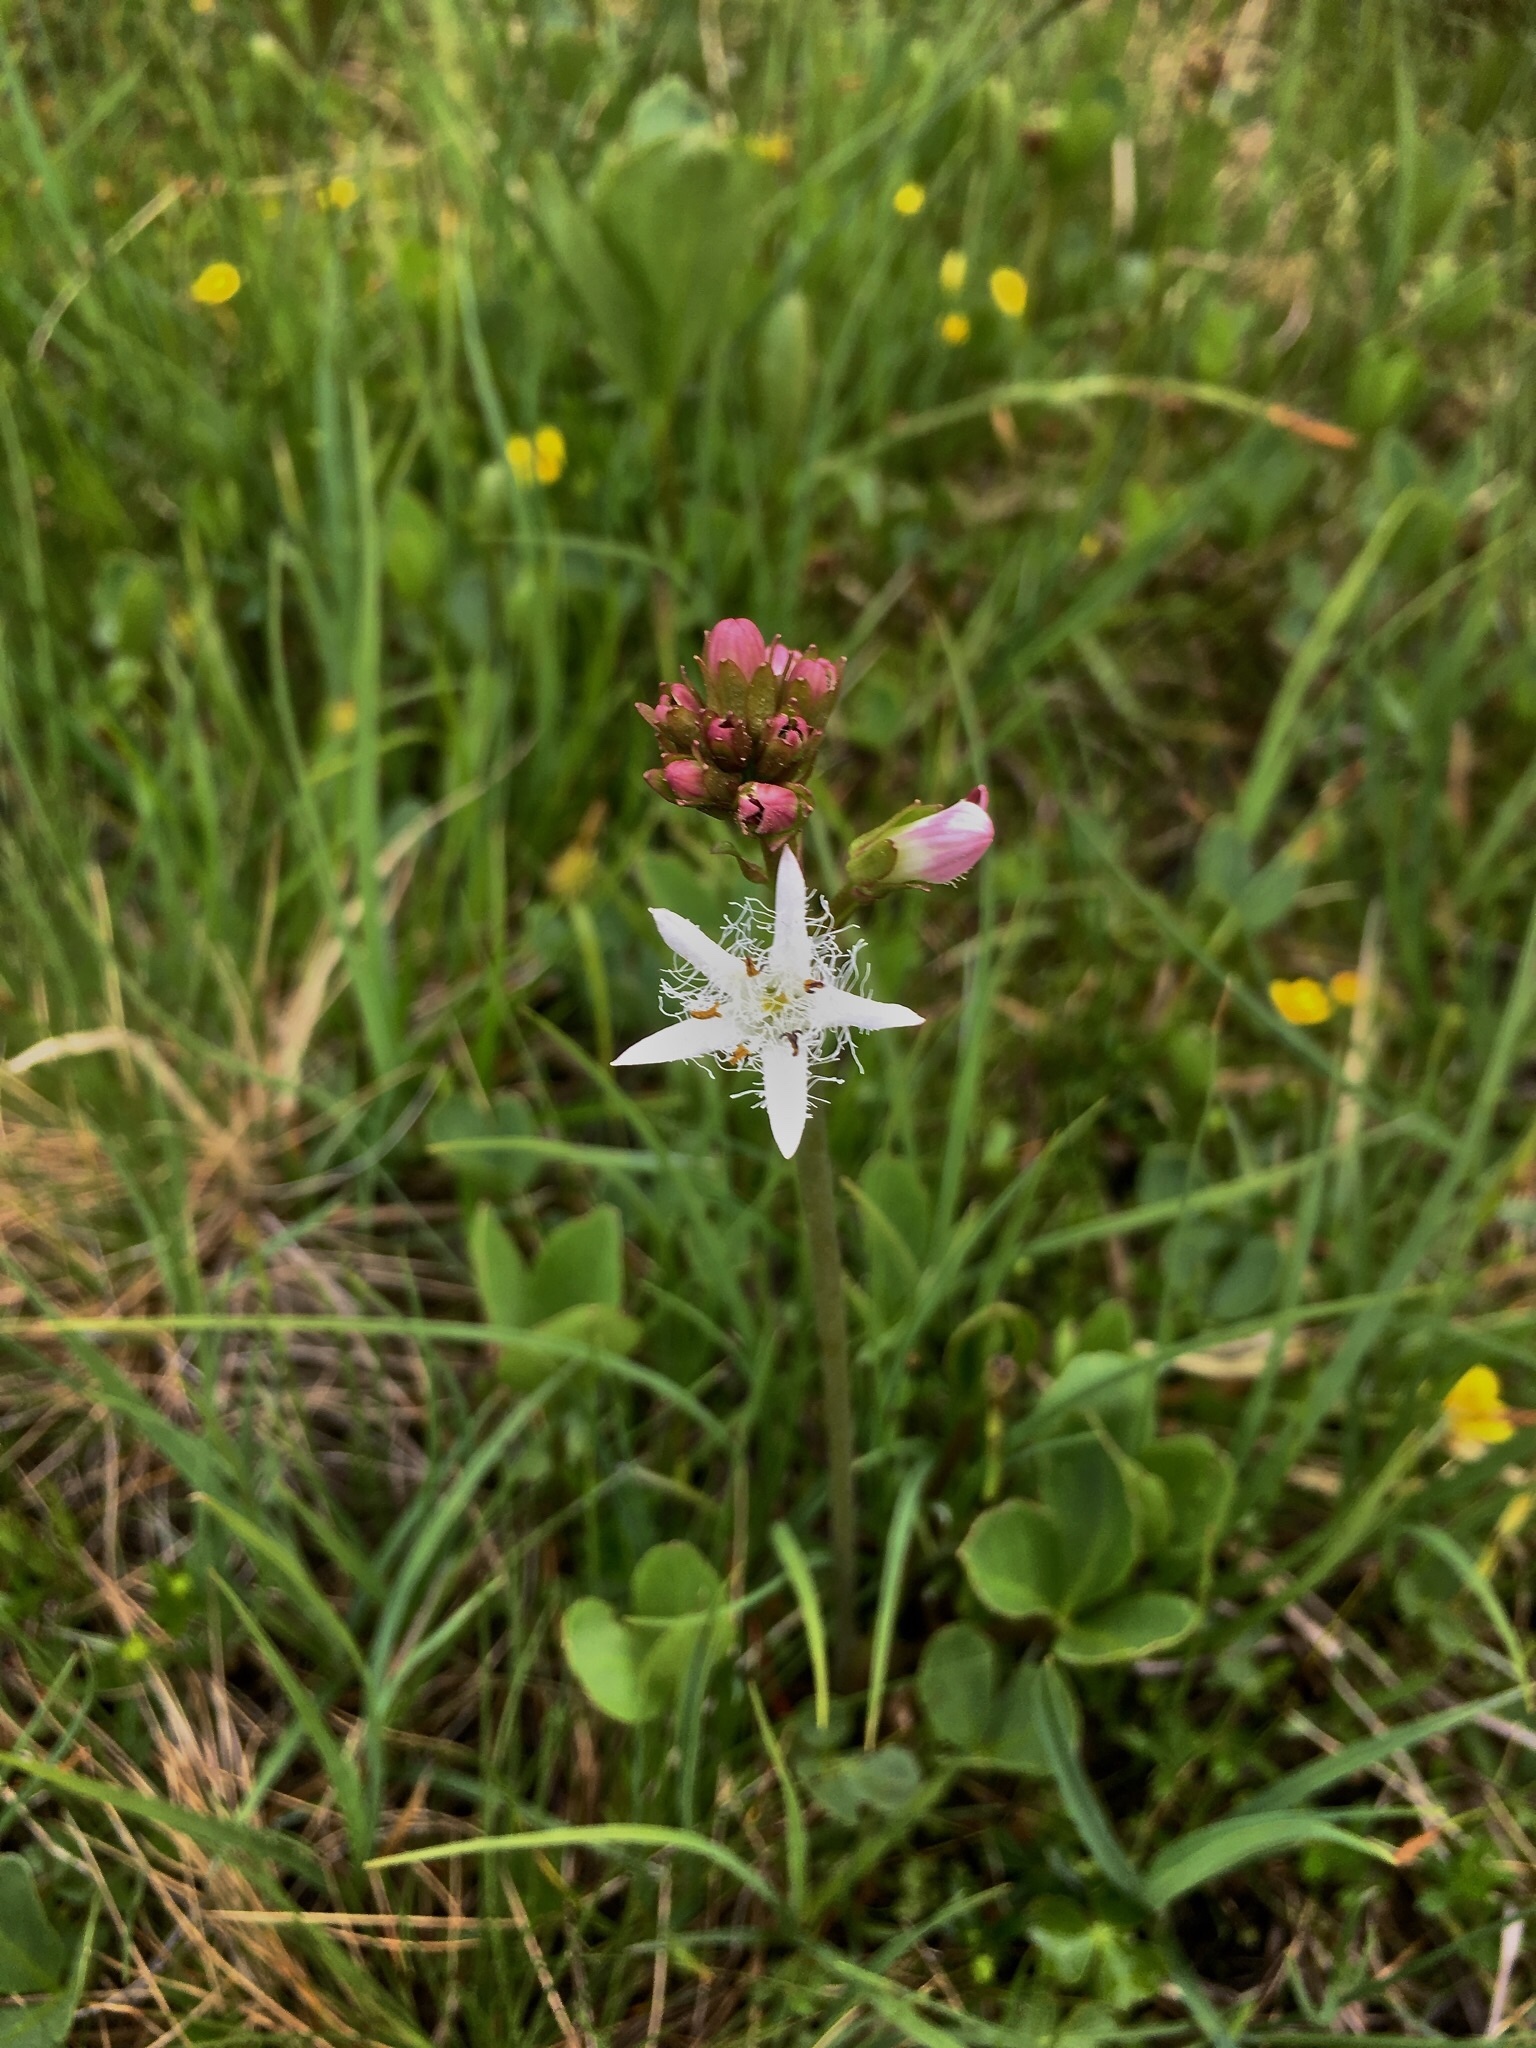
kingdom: Plantae
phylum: Tracheophyta
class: Magnoliopsida
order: Asterales
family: Menyanthaceae
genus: Menyanthes
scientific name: Menyanthes trifoliata
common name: Bogbean
